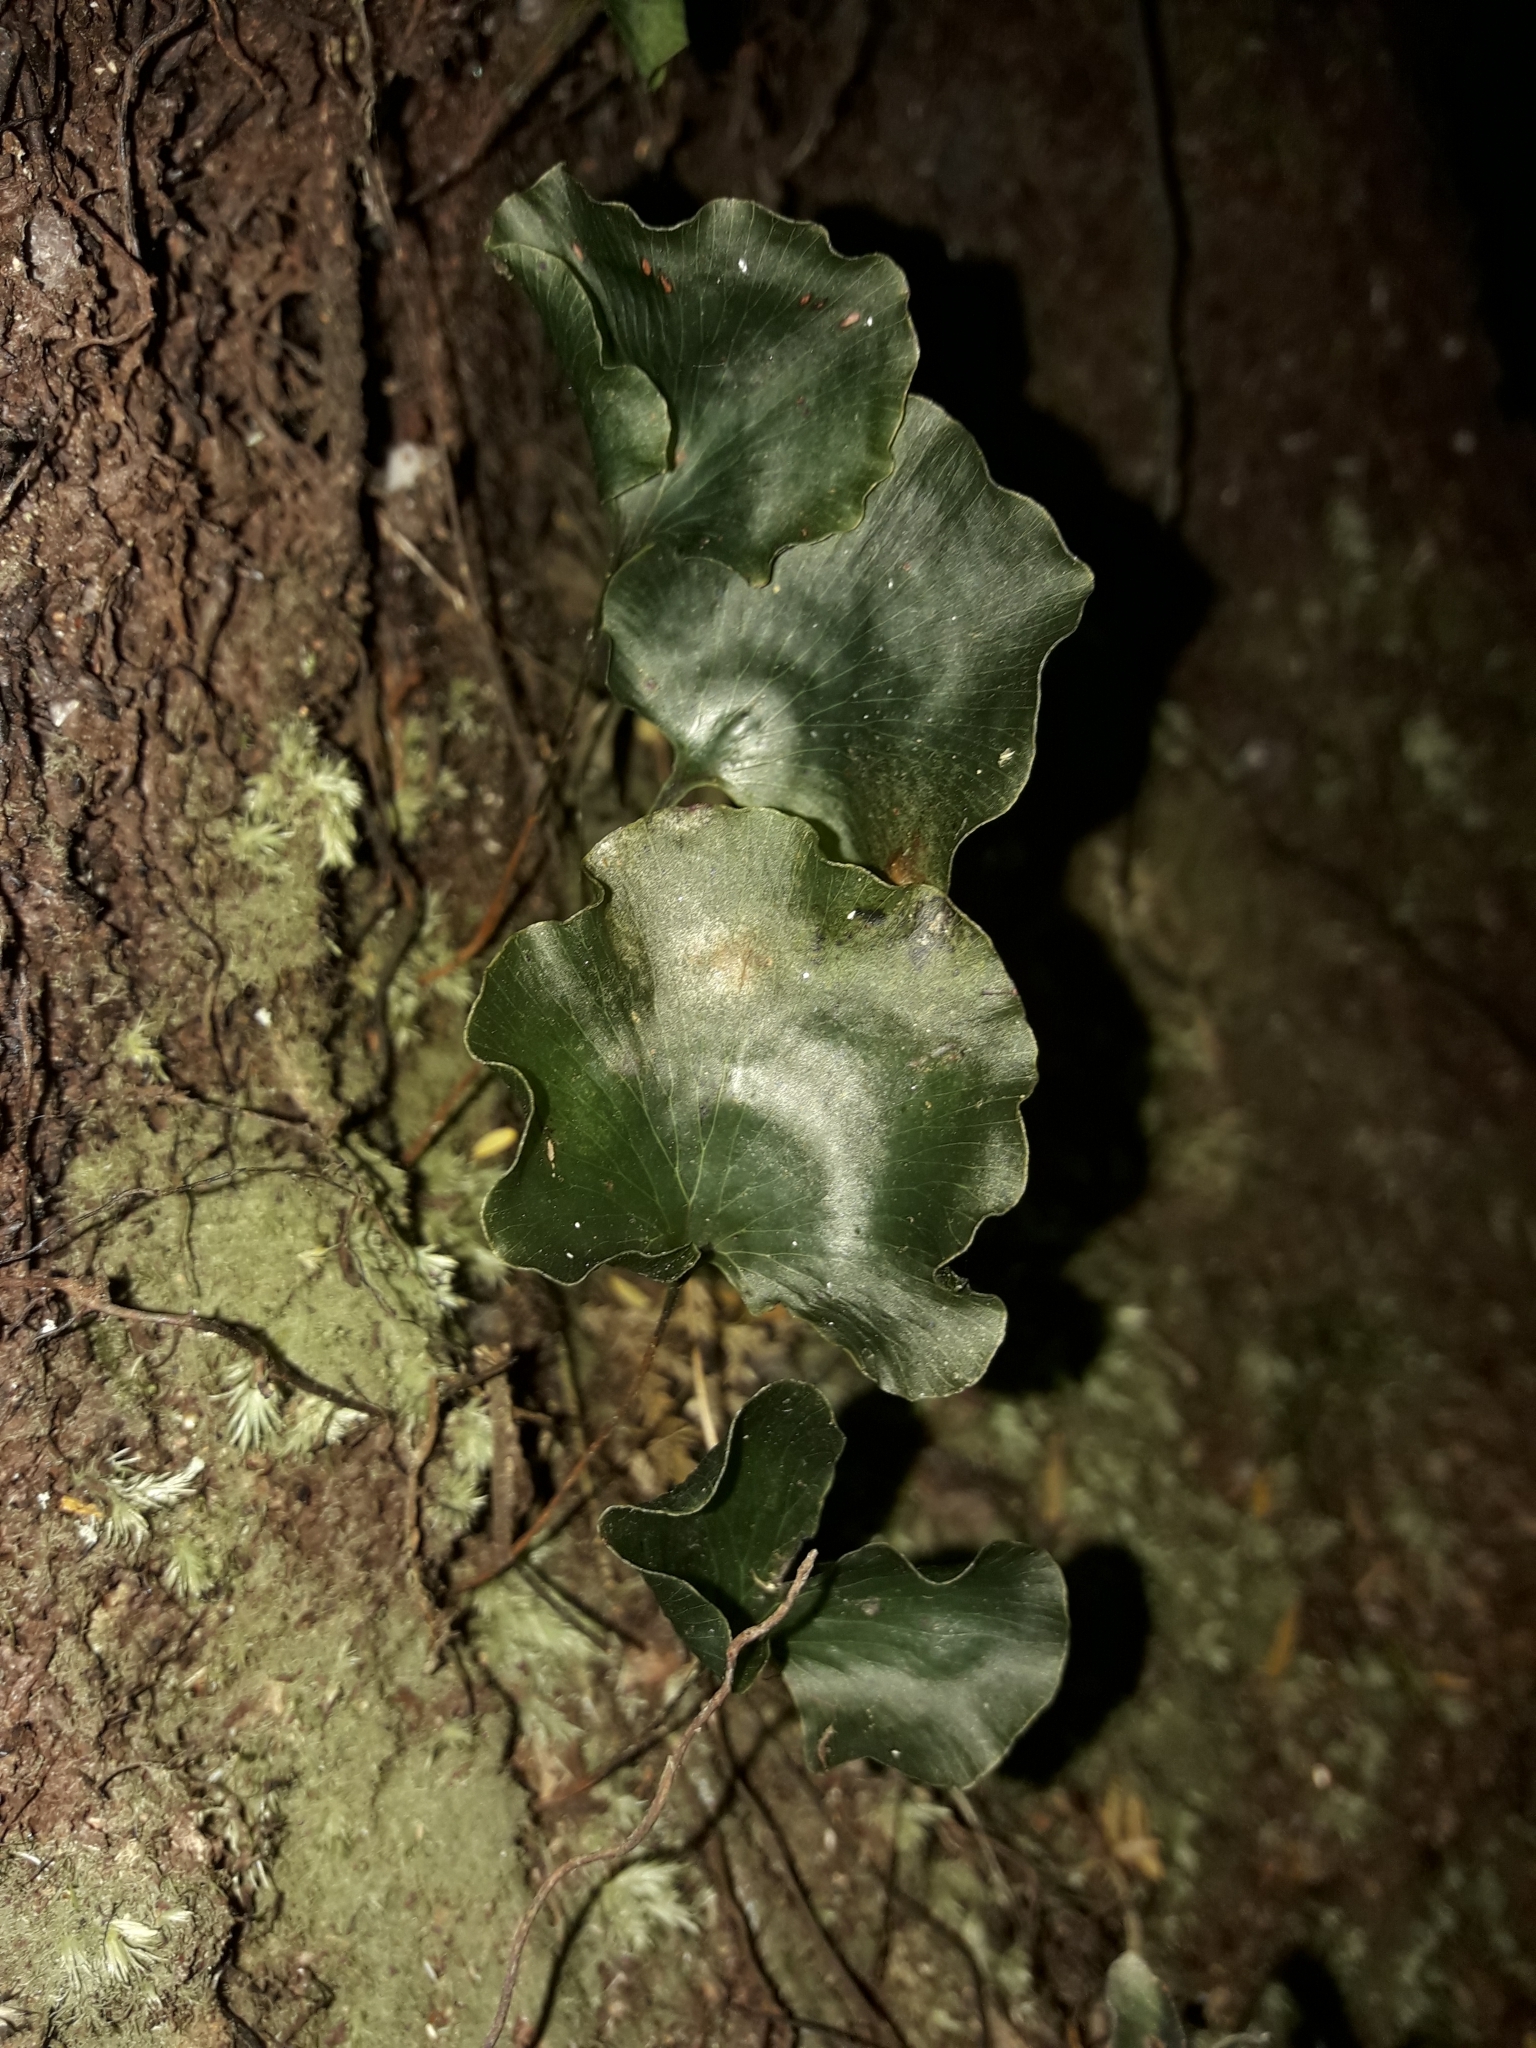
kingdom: Plantae
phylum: Tracheophyta
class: Polypodiopsida
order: Hymenophyllales
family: Hymenophyllaceae
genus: Hymenophyllum
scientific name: Hymenophyllum nephrophyllum
